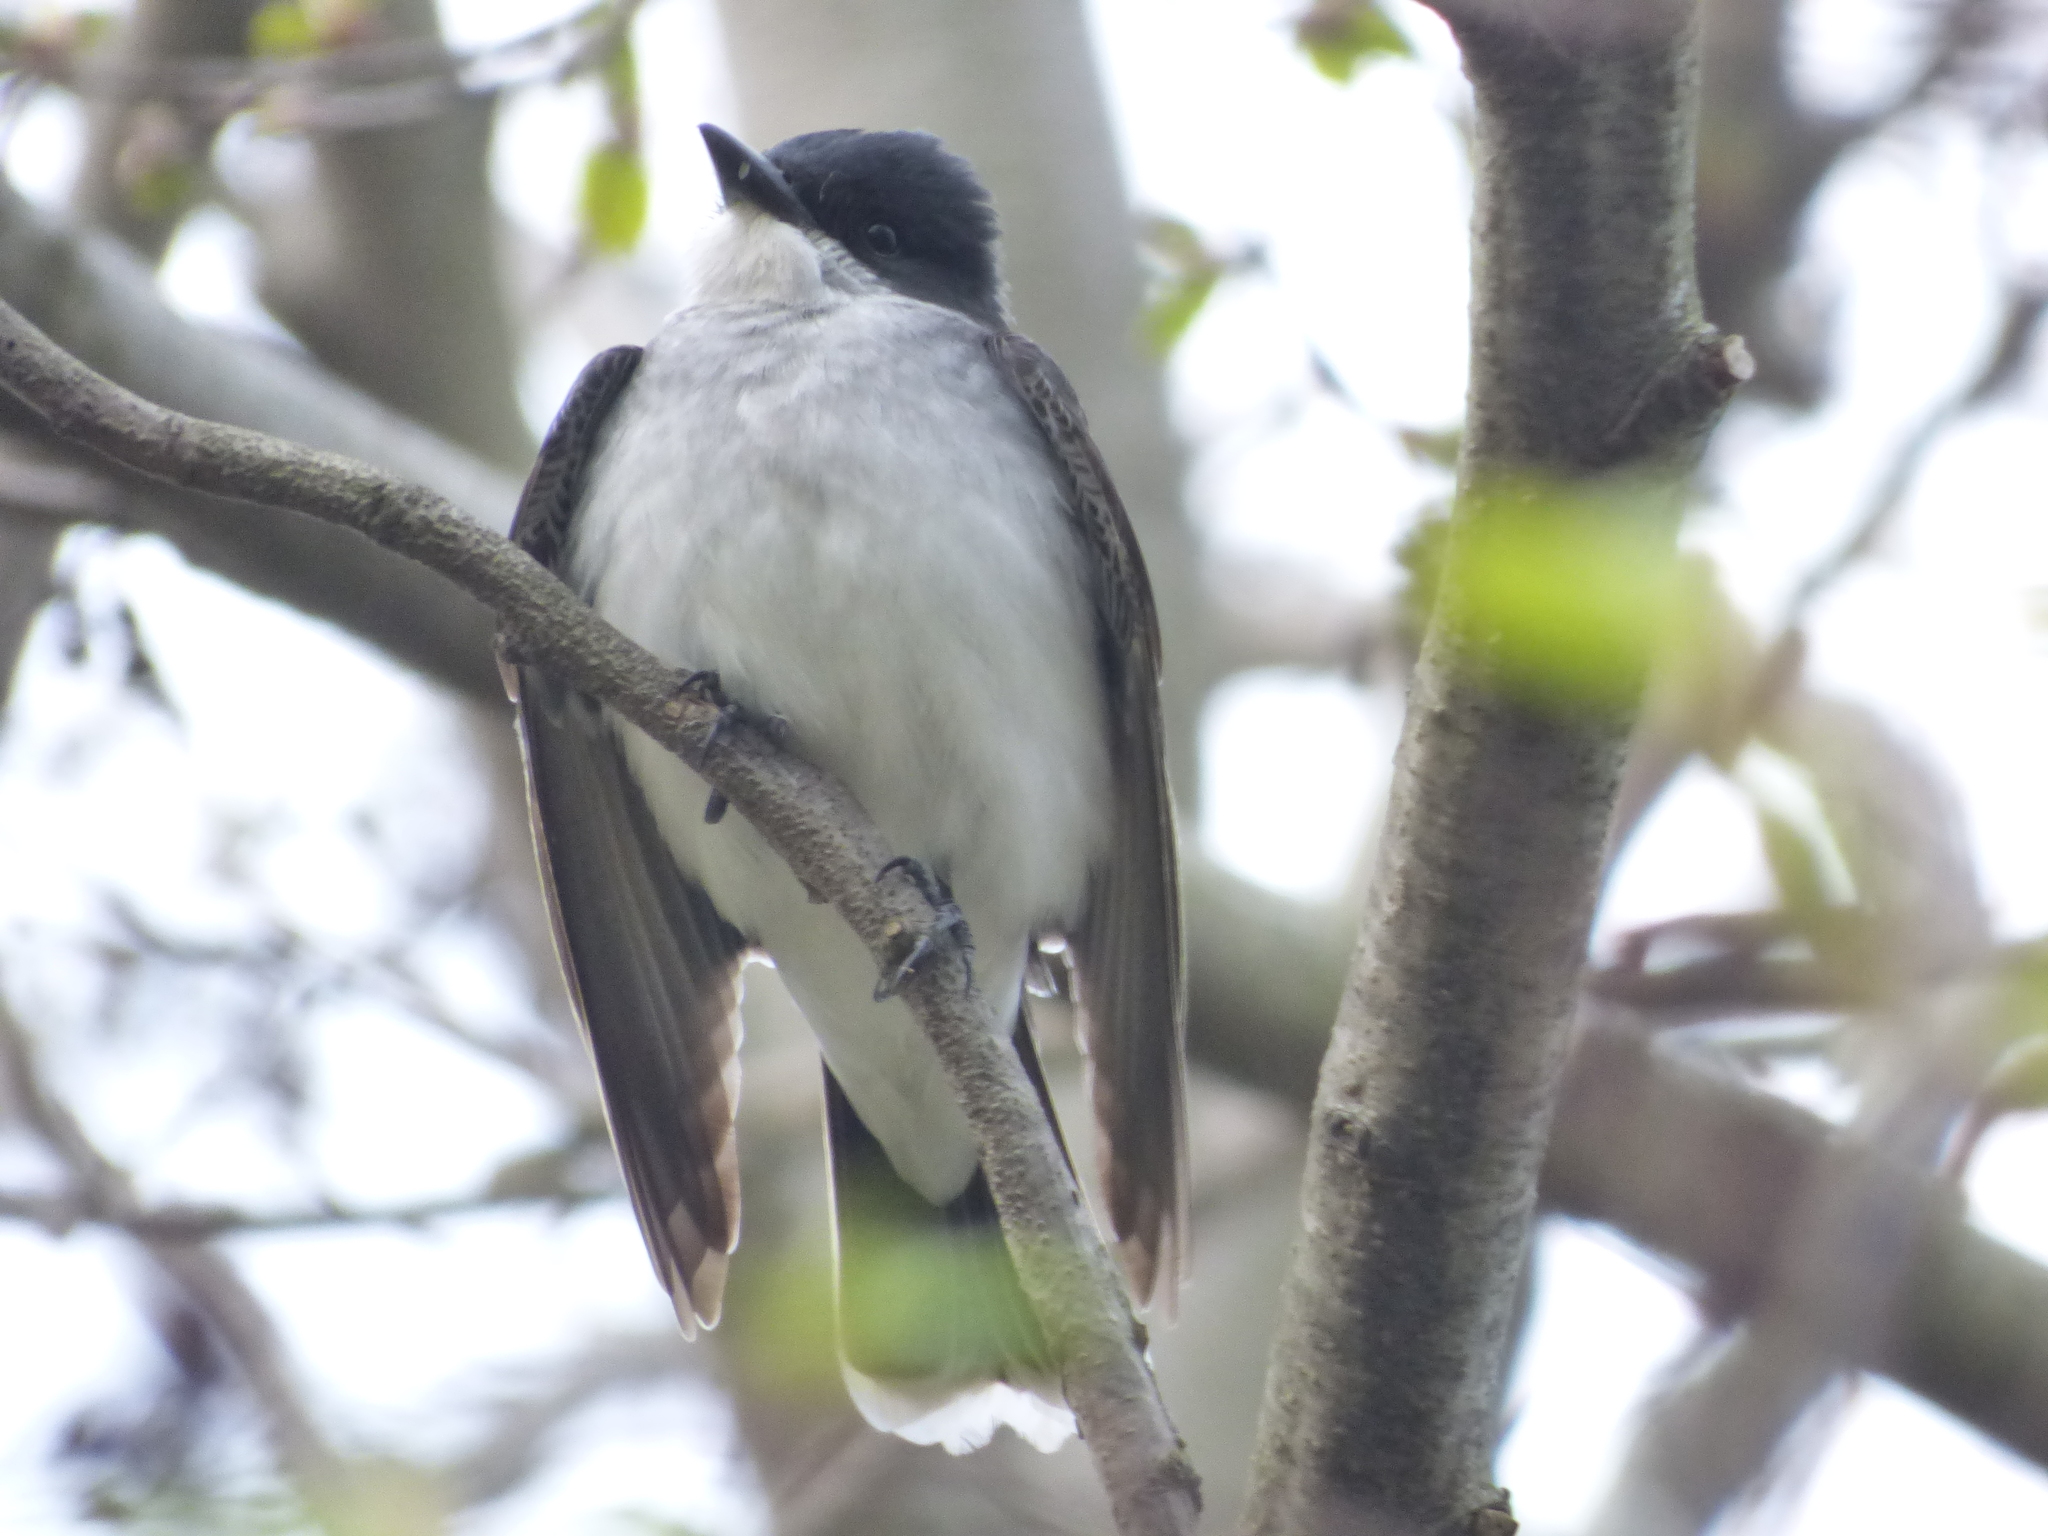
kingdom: Animalia
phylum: Chordata
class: Aves
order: Passeriformes
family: Tyrannidae
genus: Tyrannus
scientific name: Tyrannus tyrannus
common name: Eastern kingbird
